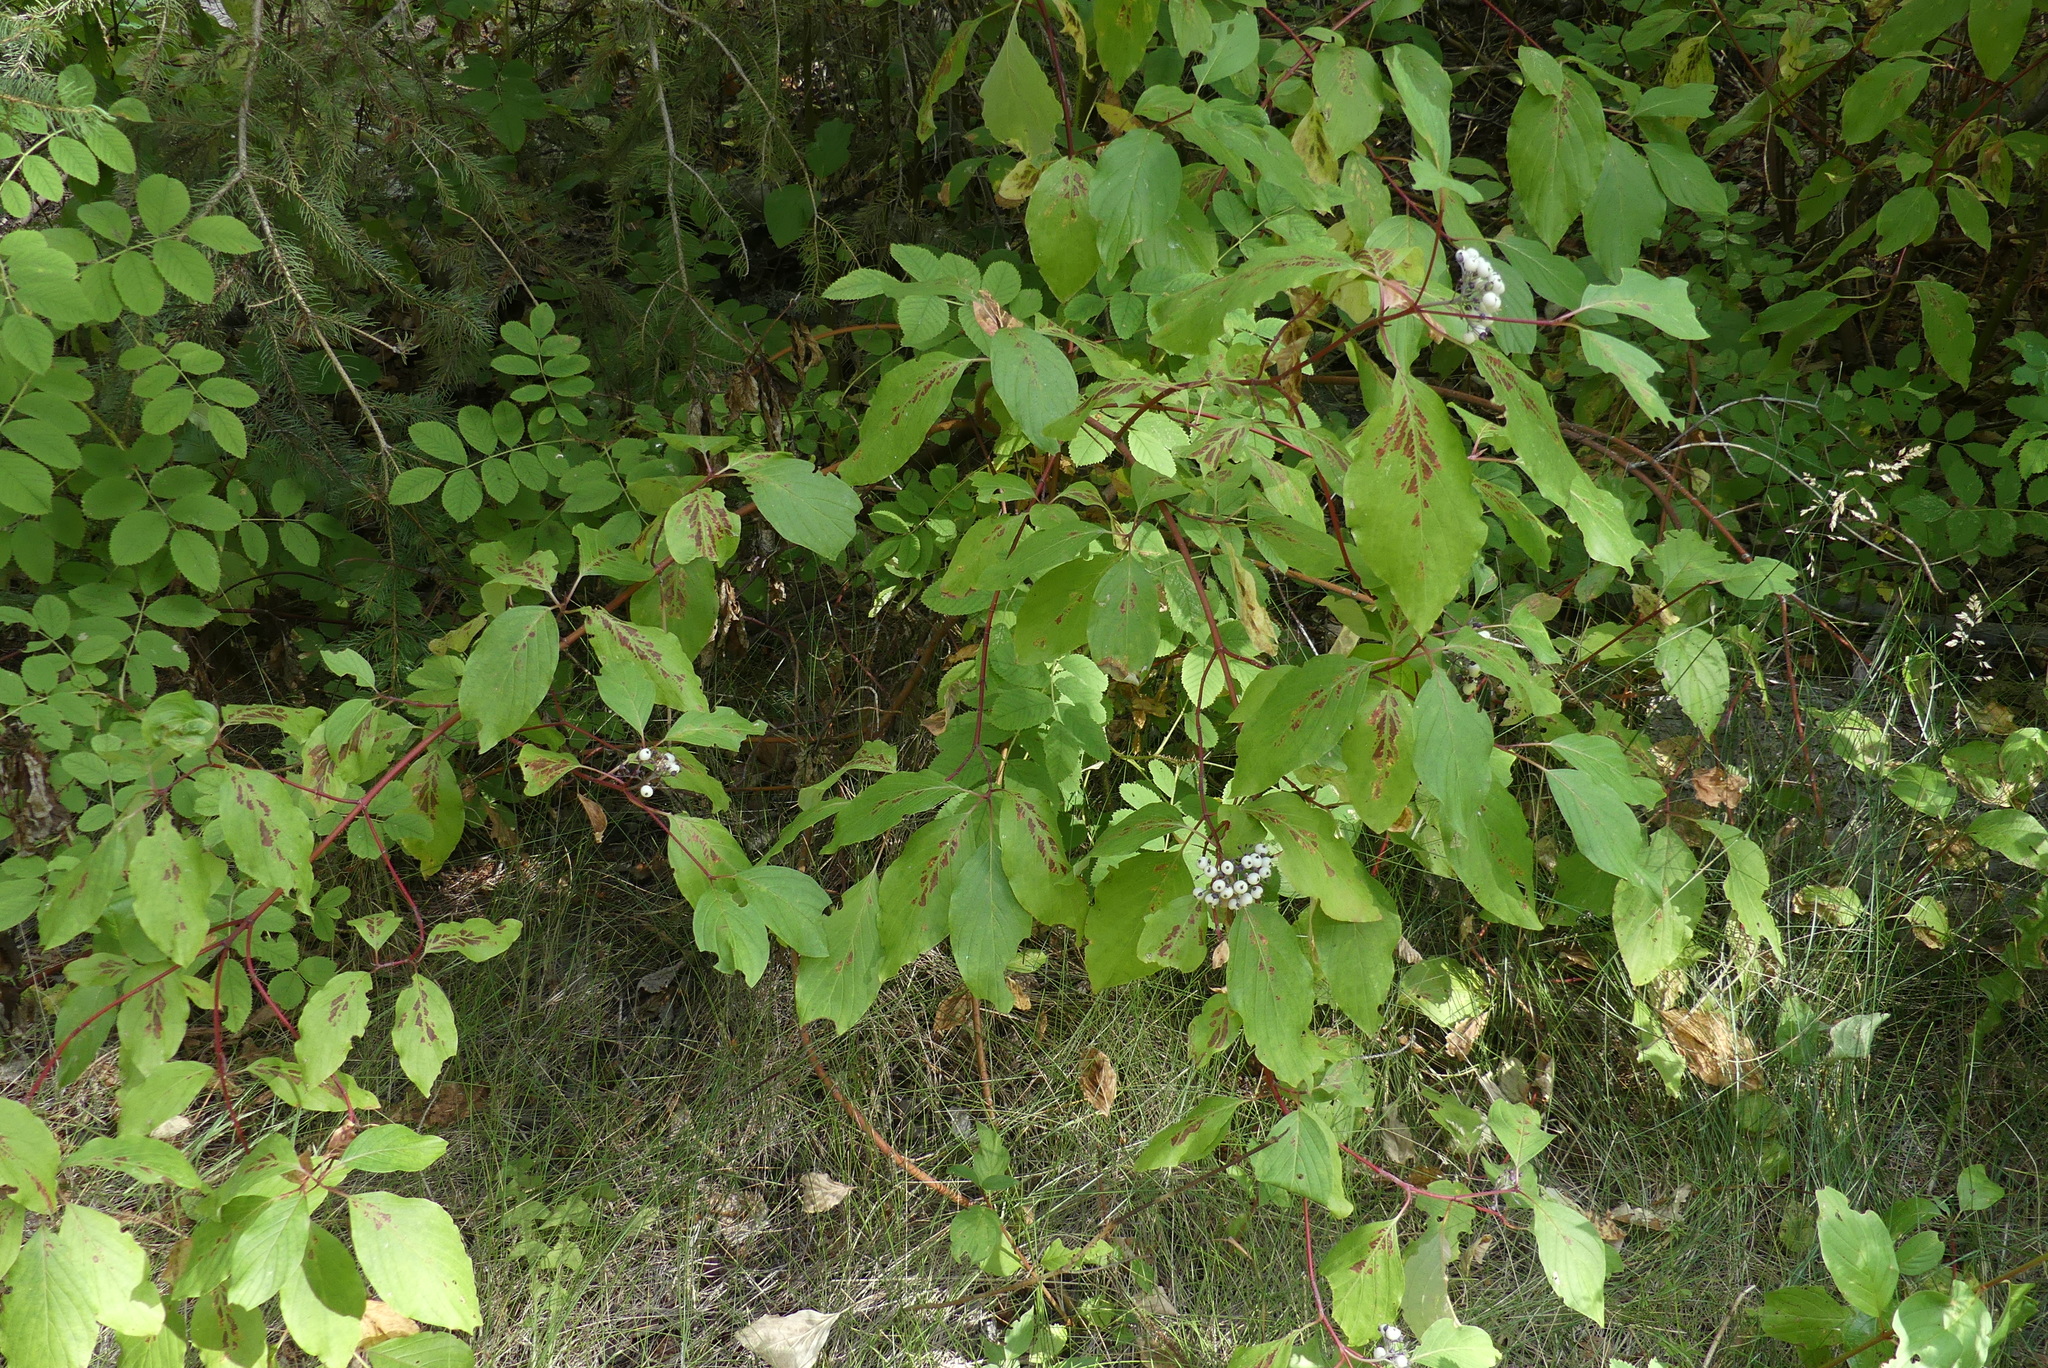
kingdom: Plantae
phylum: Tracheophyta
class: Magnoliopsida
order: Cornales
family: Cornaceae
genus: Cornus
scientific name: Cornus sericea
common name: Red-osier dogwood
